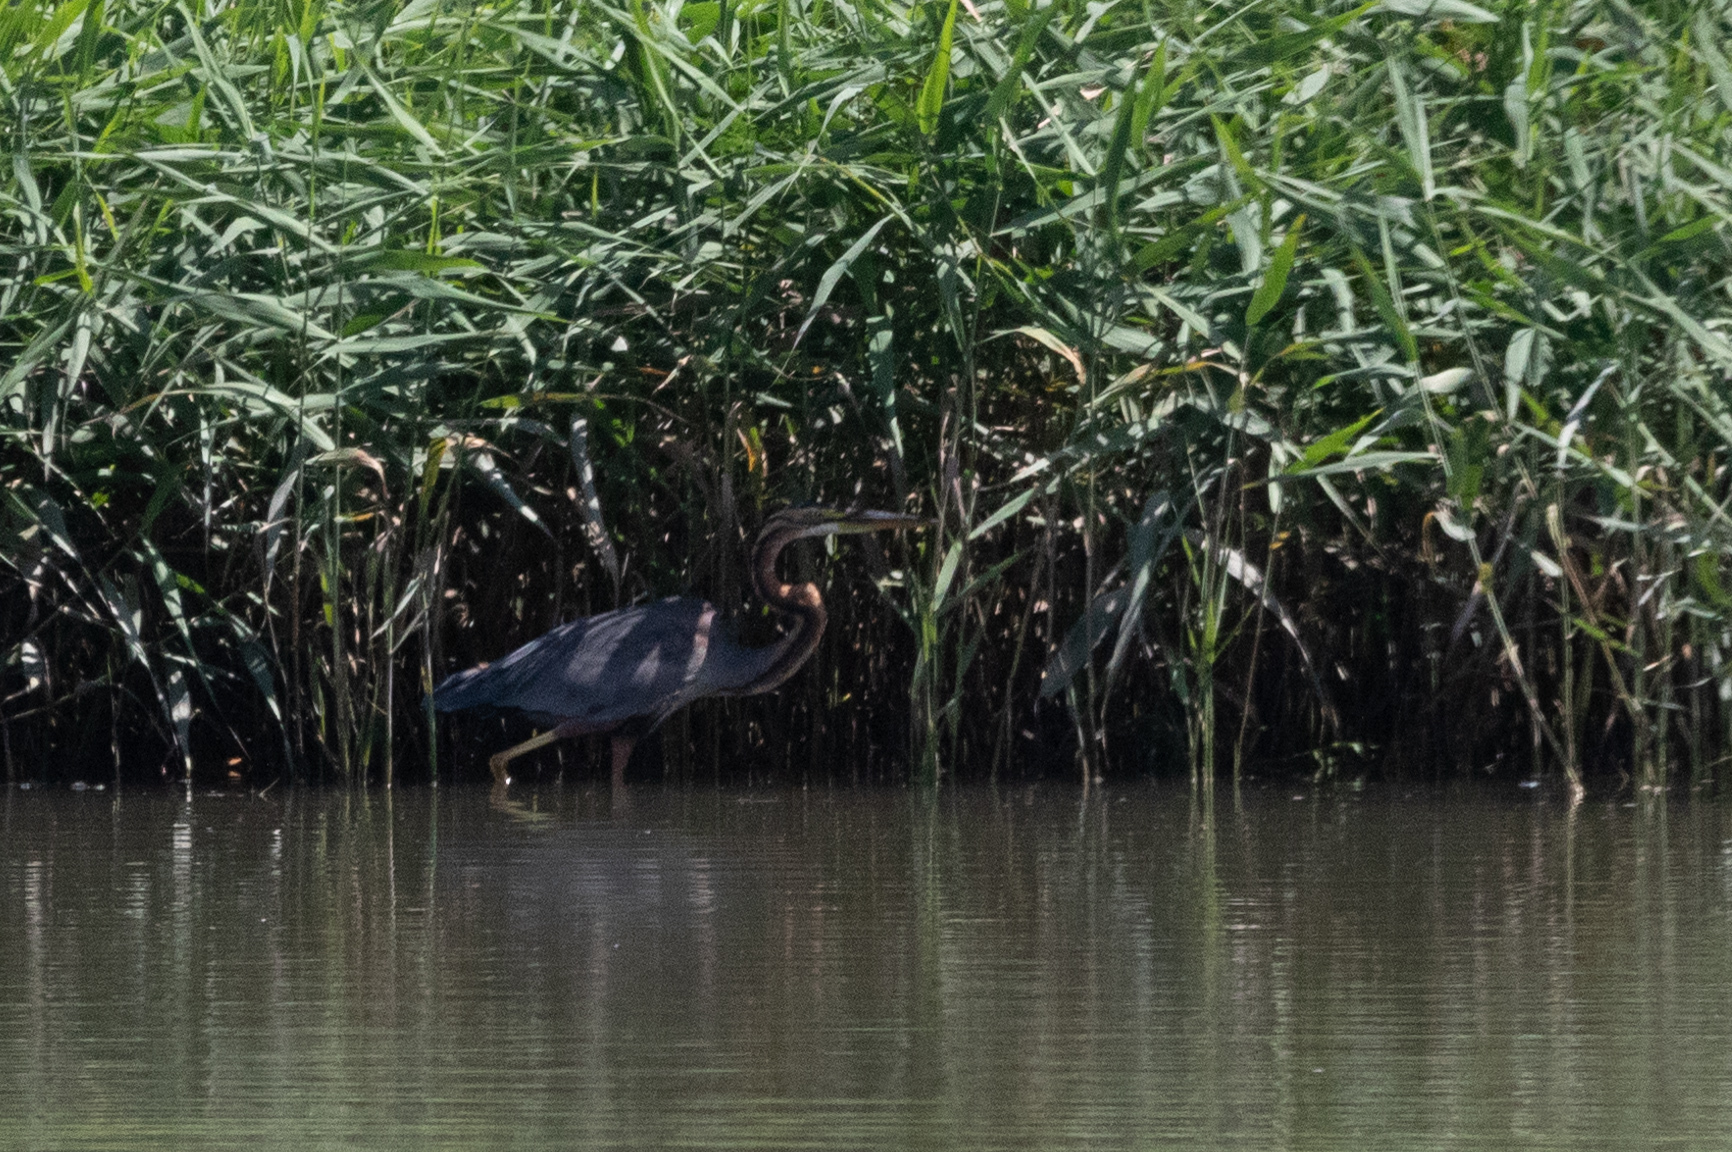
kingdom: Animalia
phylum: Chordata
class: Aves
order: Pelecaniformes
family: Ardeidae
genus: Ardea
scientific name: Ardea purpurea
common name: Purple heron
